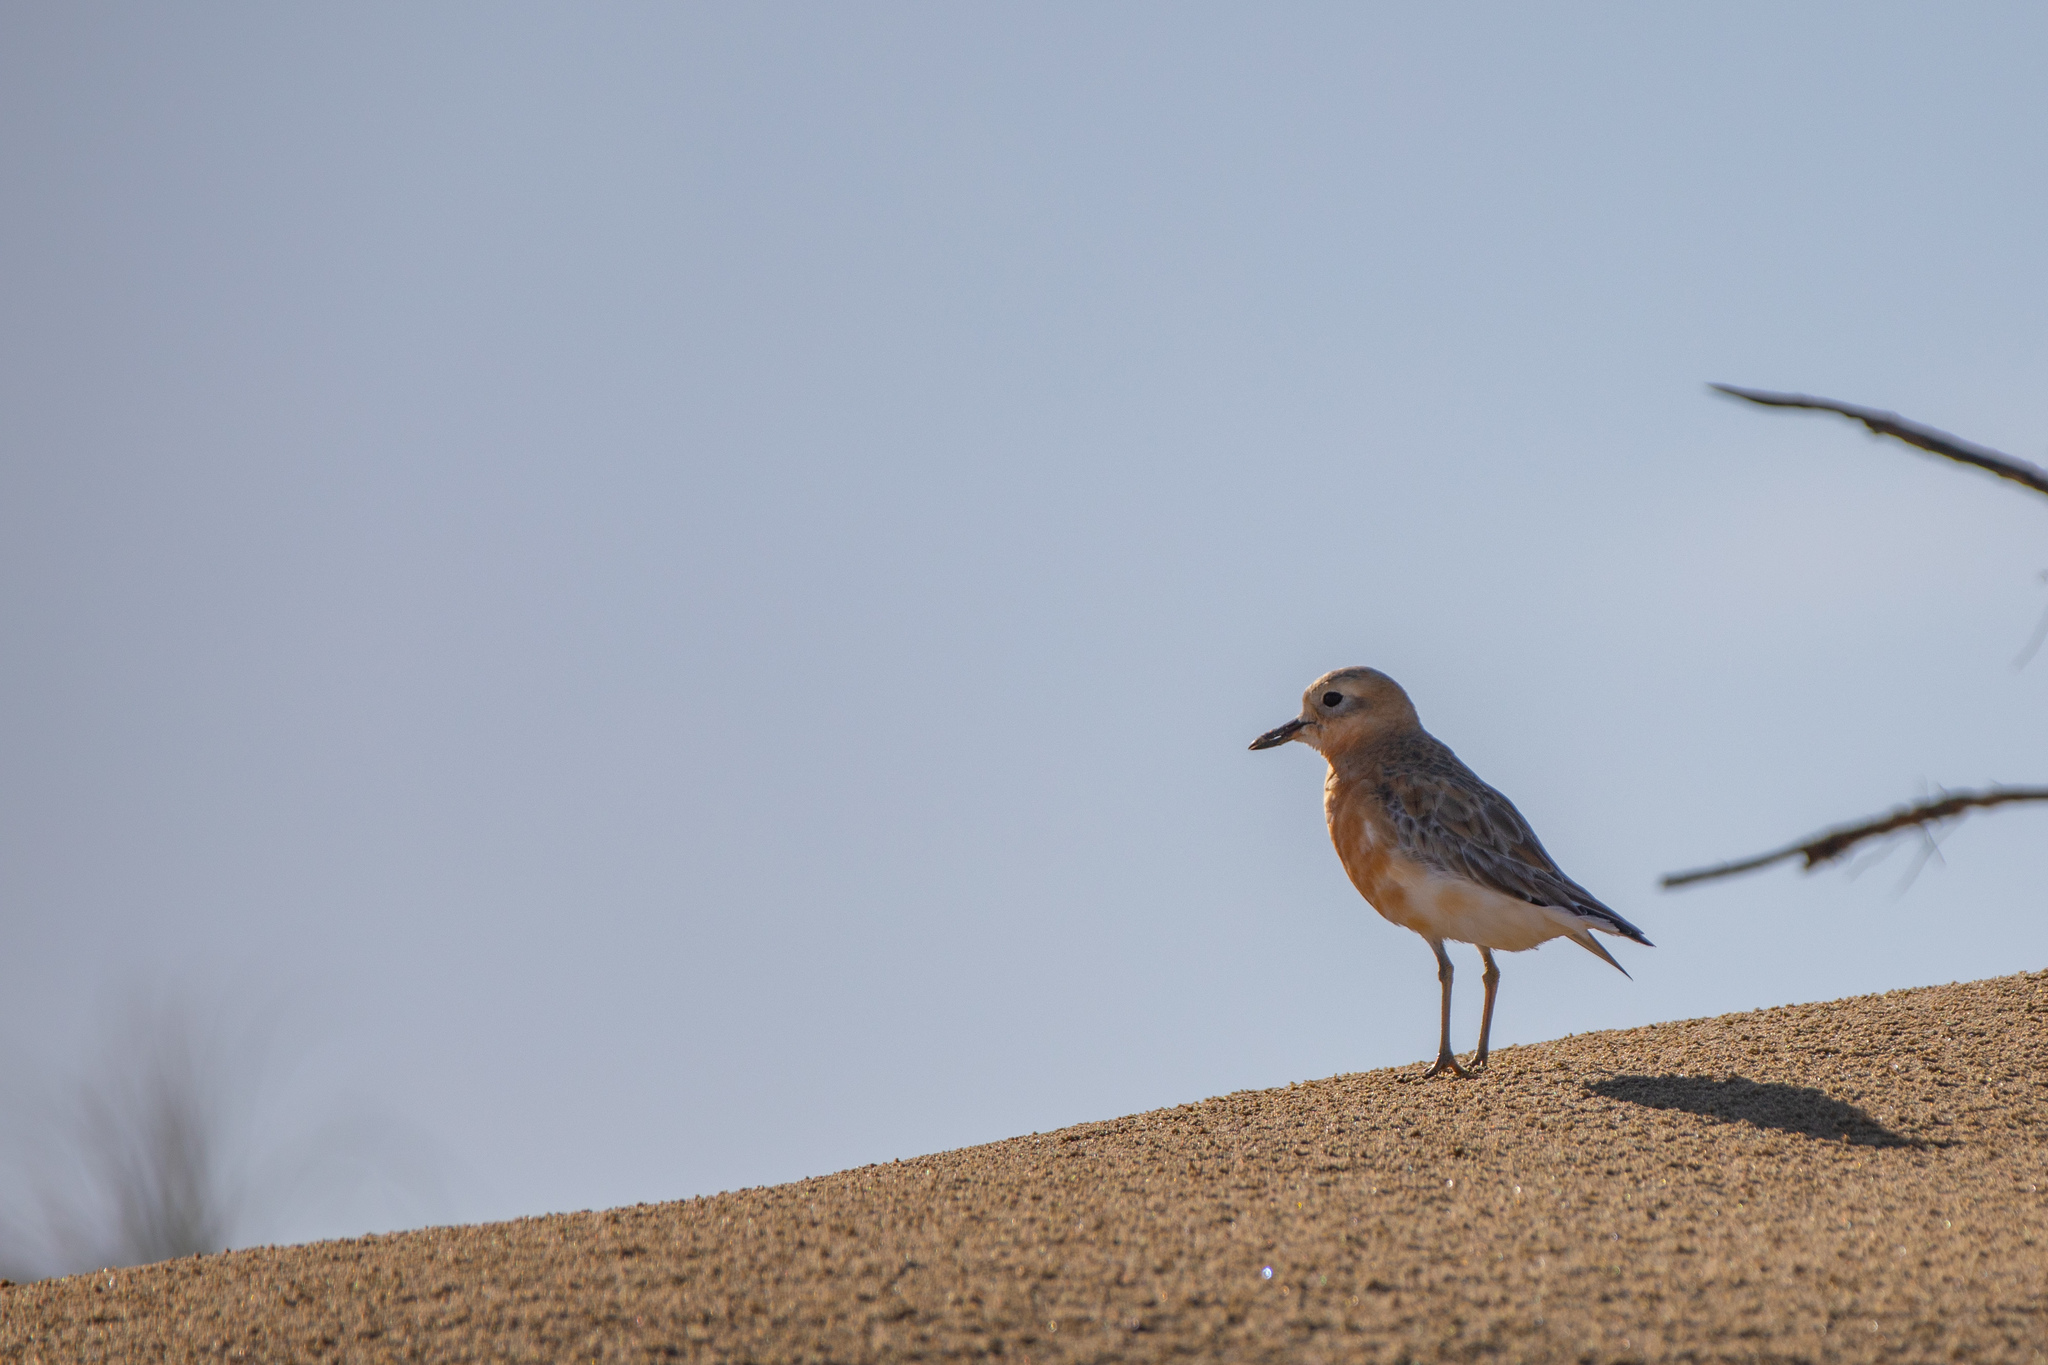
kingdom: Animalia
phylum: Chordata
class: Aves
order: Charadriiformes
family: Charadriidae
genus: Anarhynchus
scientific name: Anarhynchus
